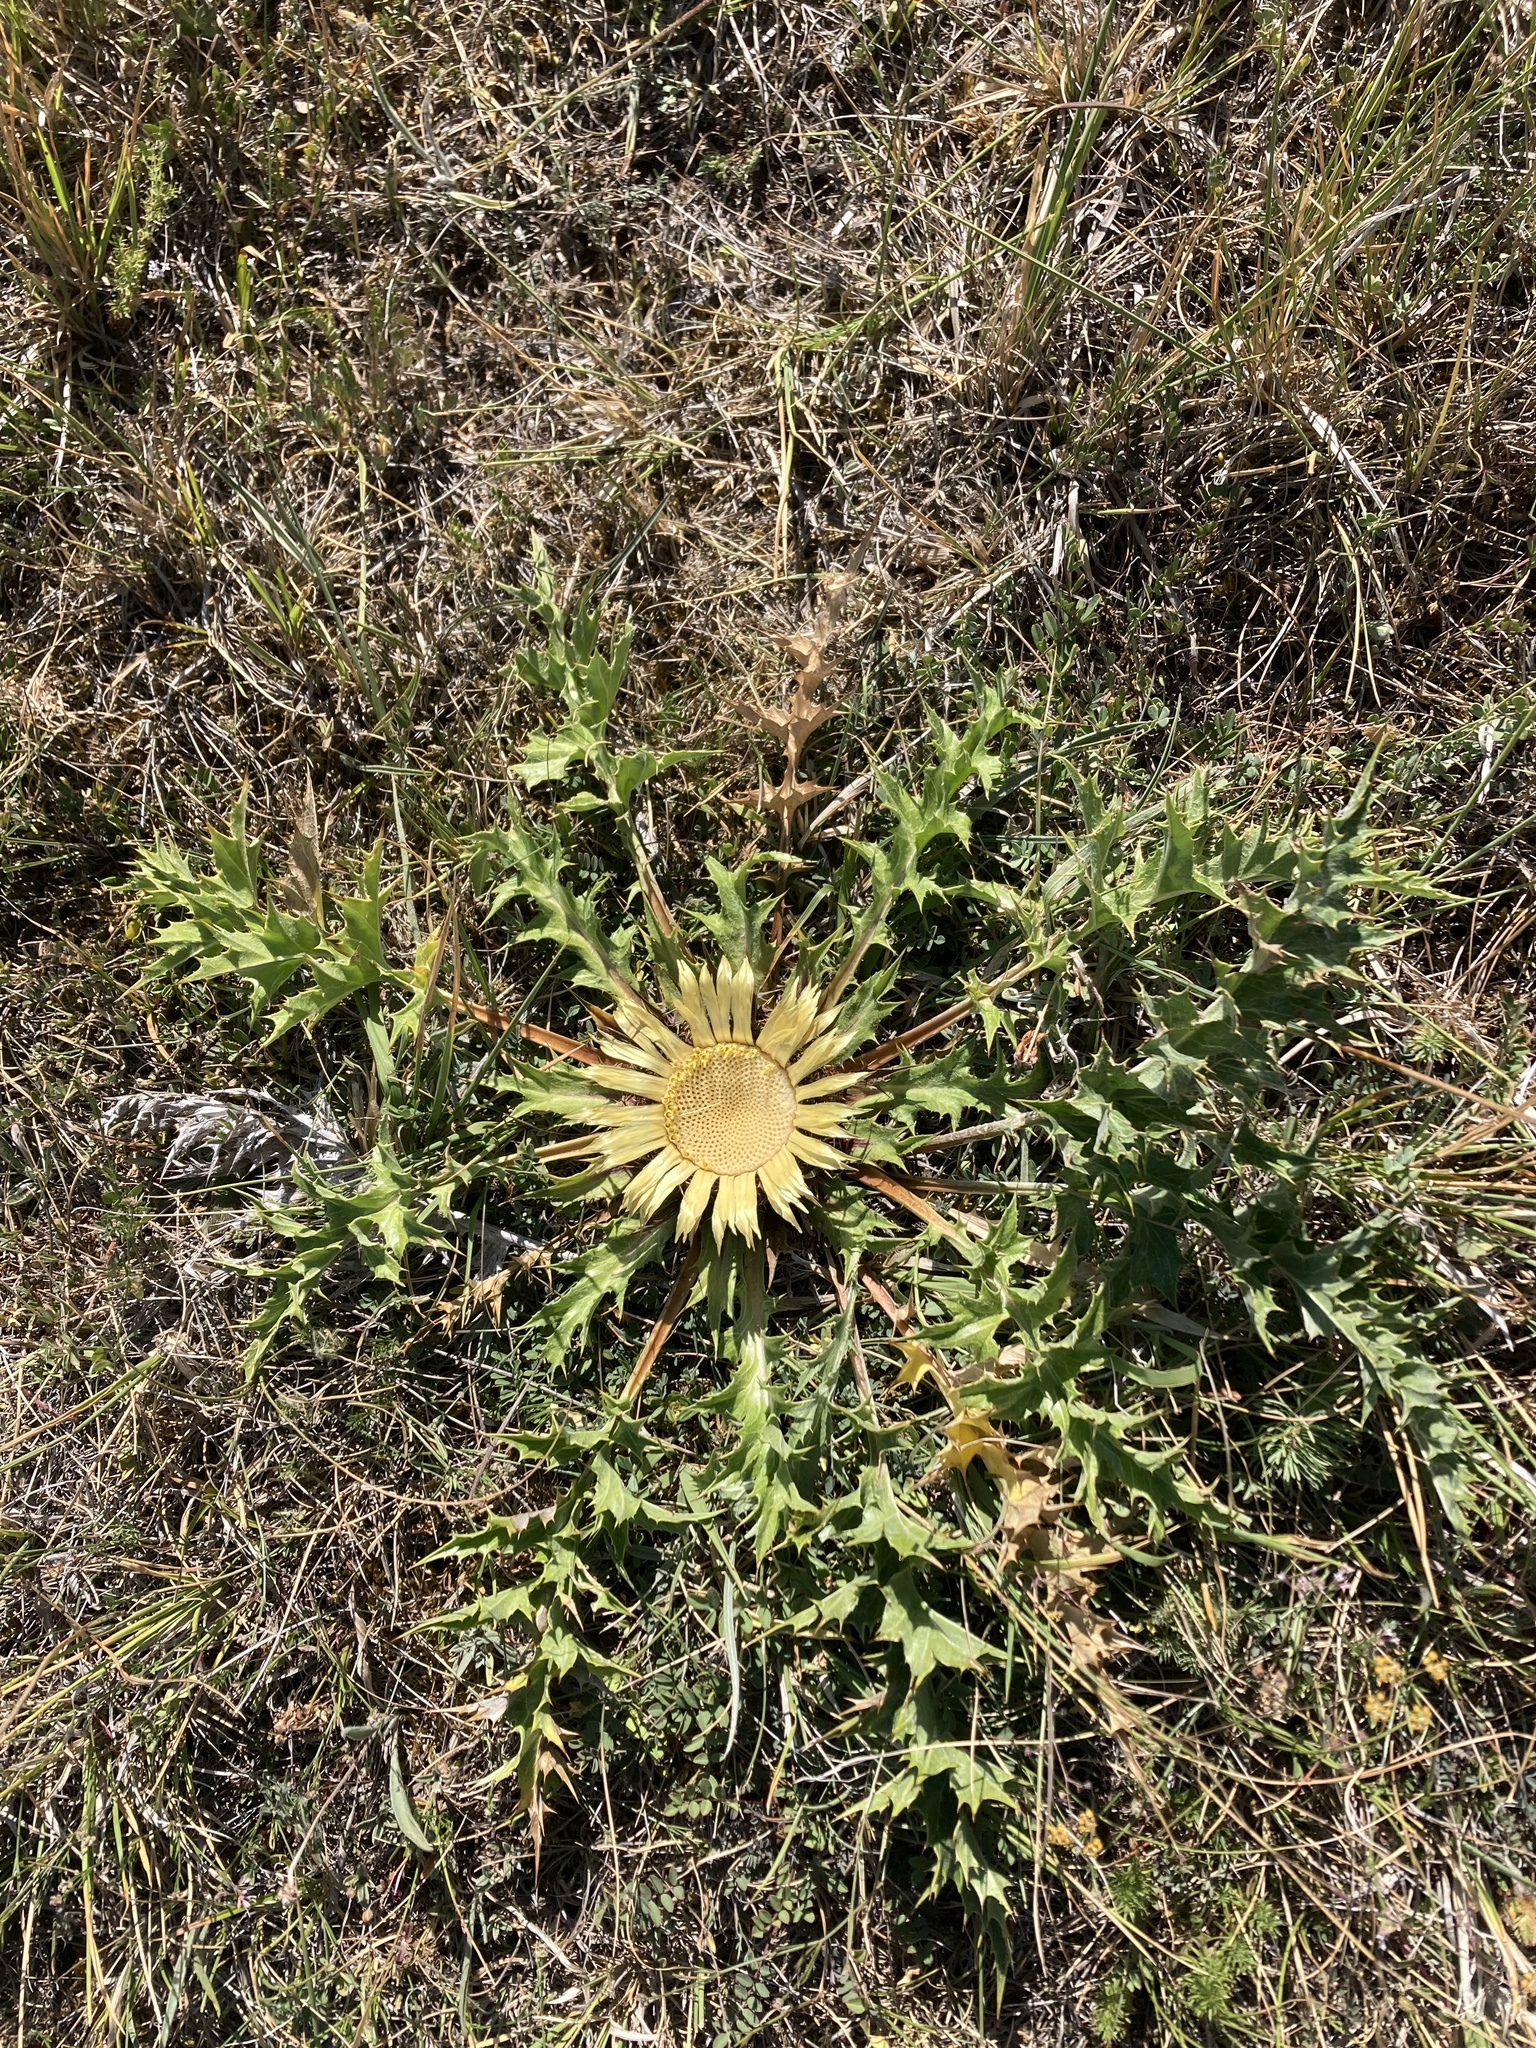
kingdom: Plantae
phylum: Tracheophyta
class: Magnoliopsida
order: Asterales
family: Asteraceae
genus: Carlina
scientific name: Carlina acanthifolia
